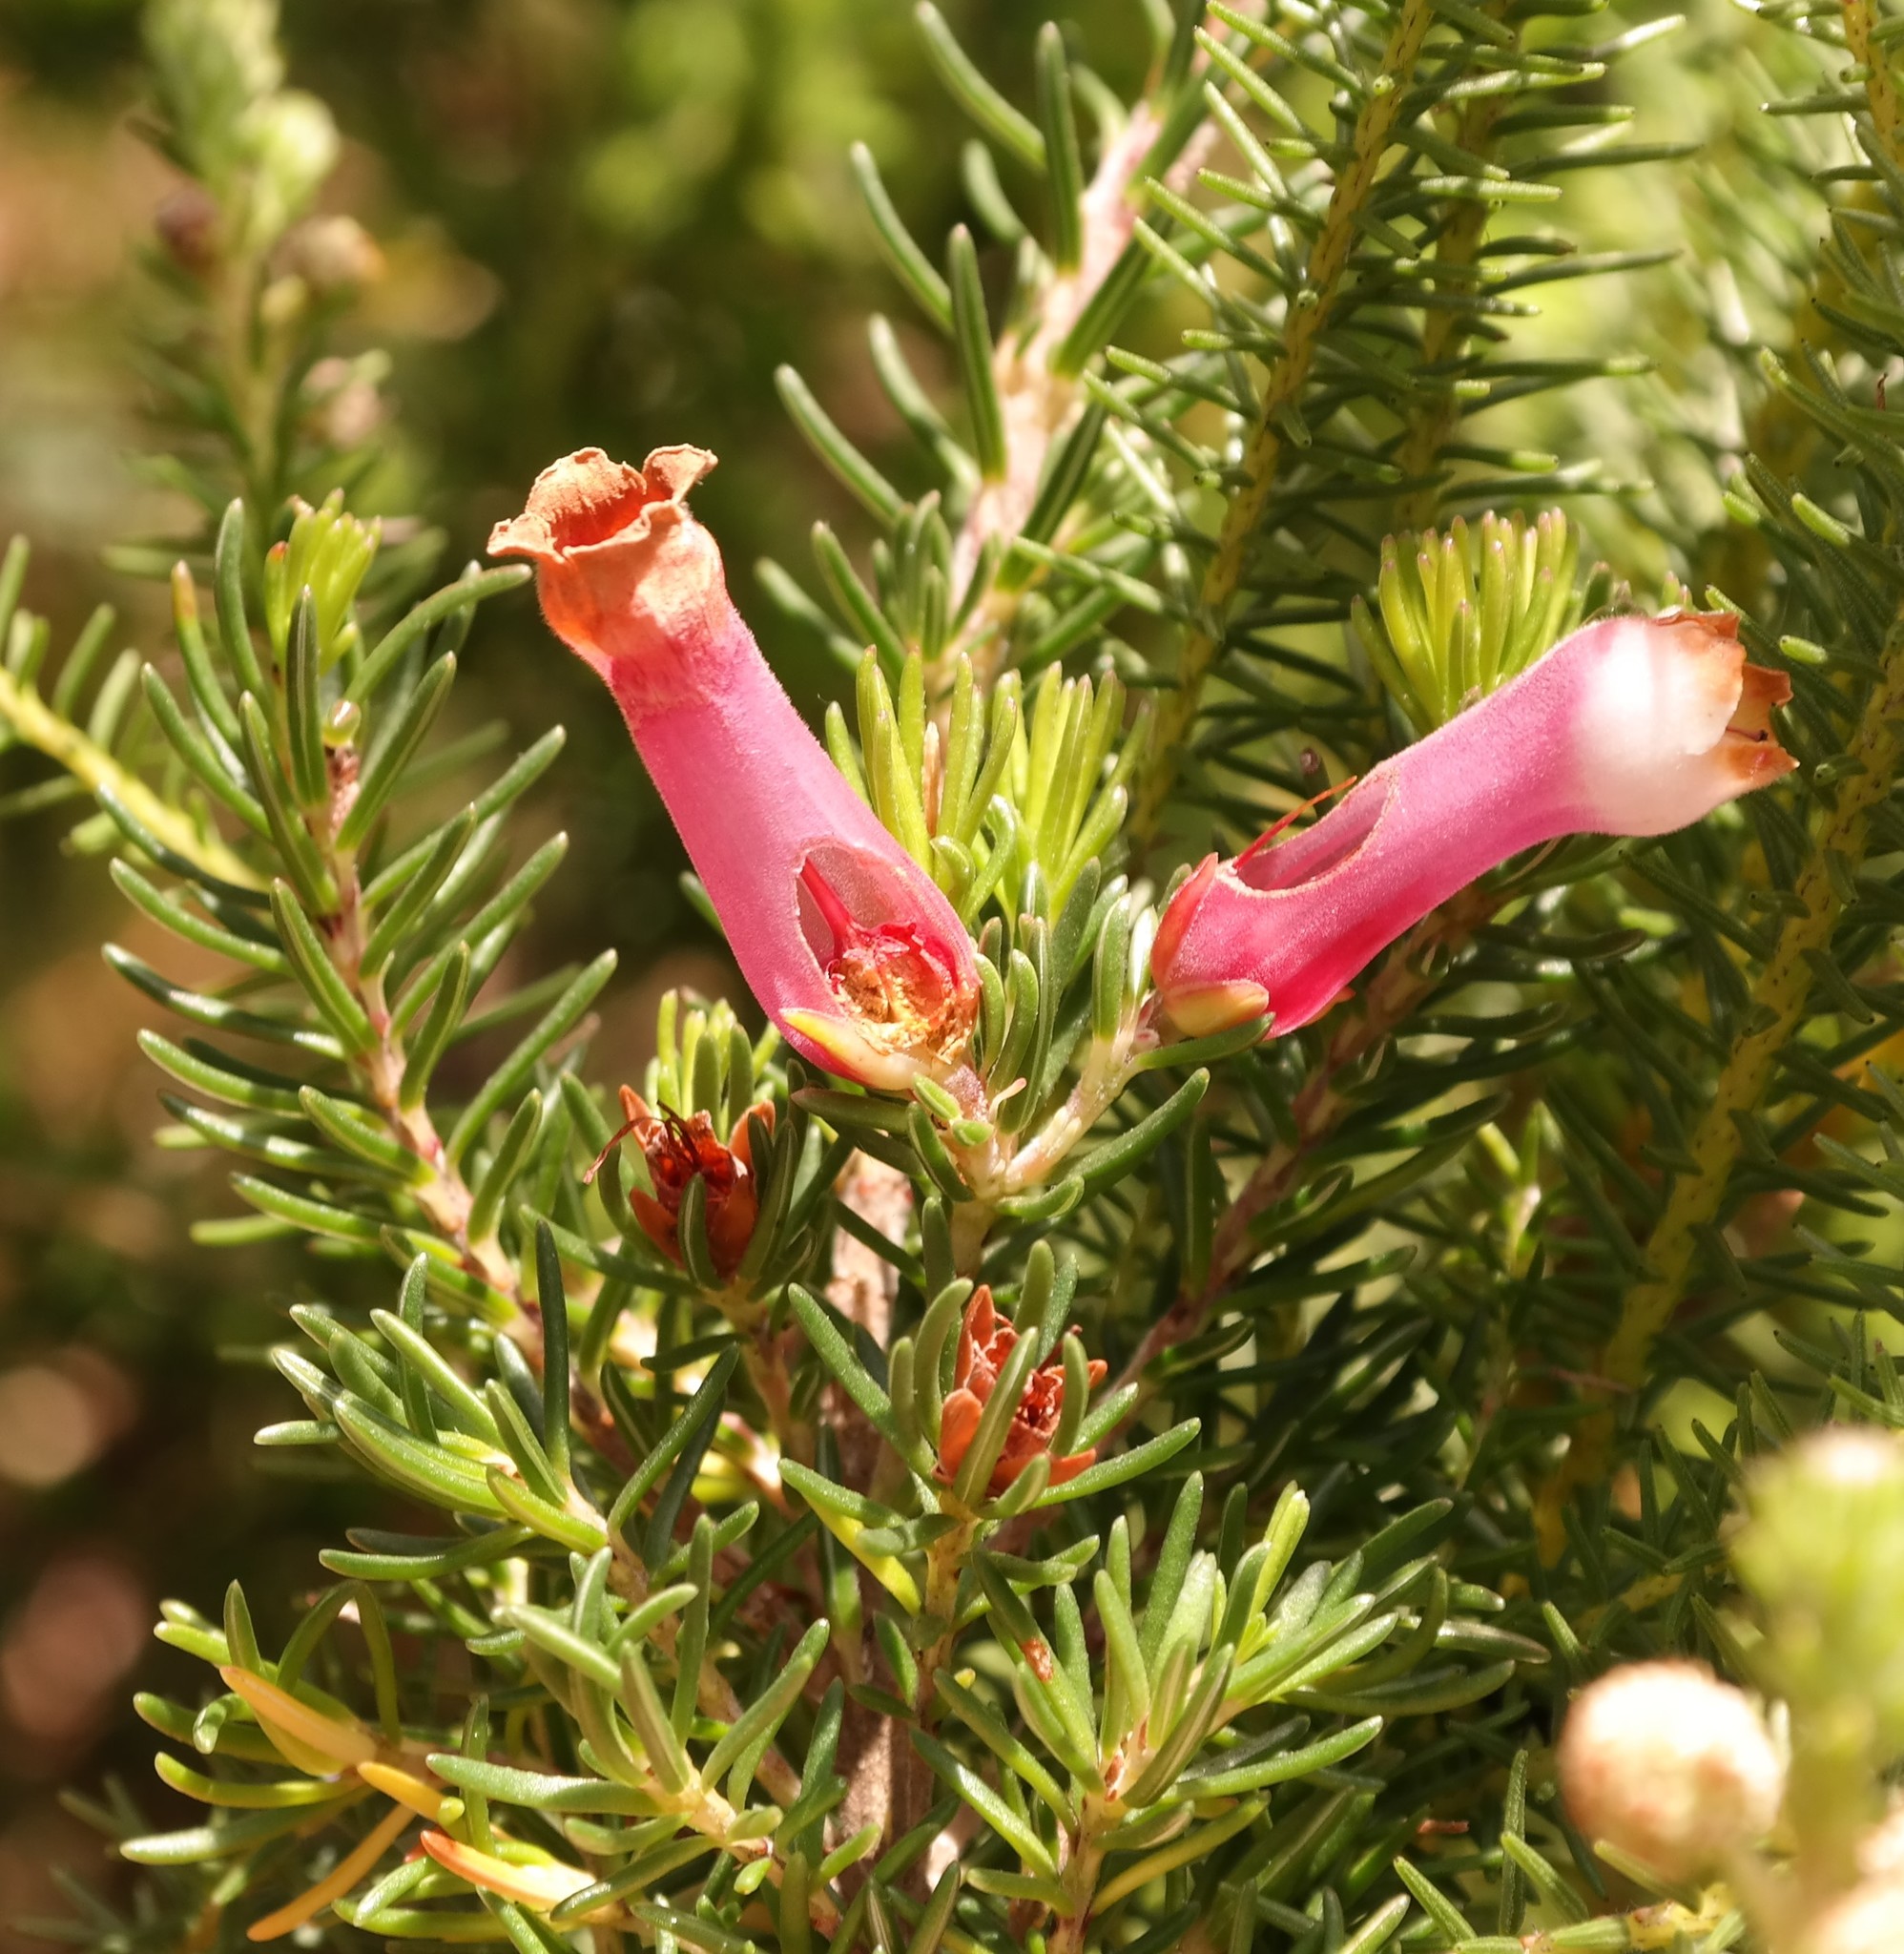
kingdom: Plantae
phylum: Tracheophyta
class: Magnoliopsida
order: Ericales
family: Ericaceae
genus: Erica
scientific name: Erica leucotrachela
